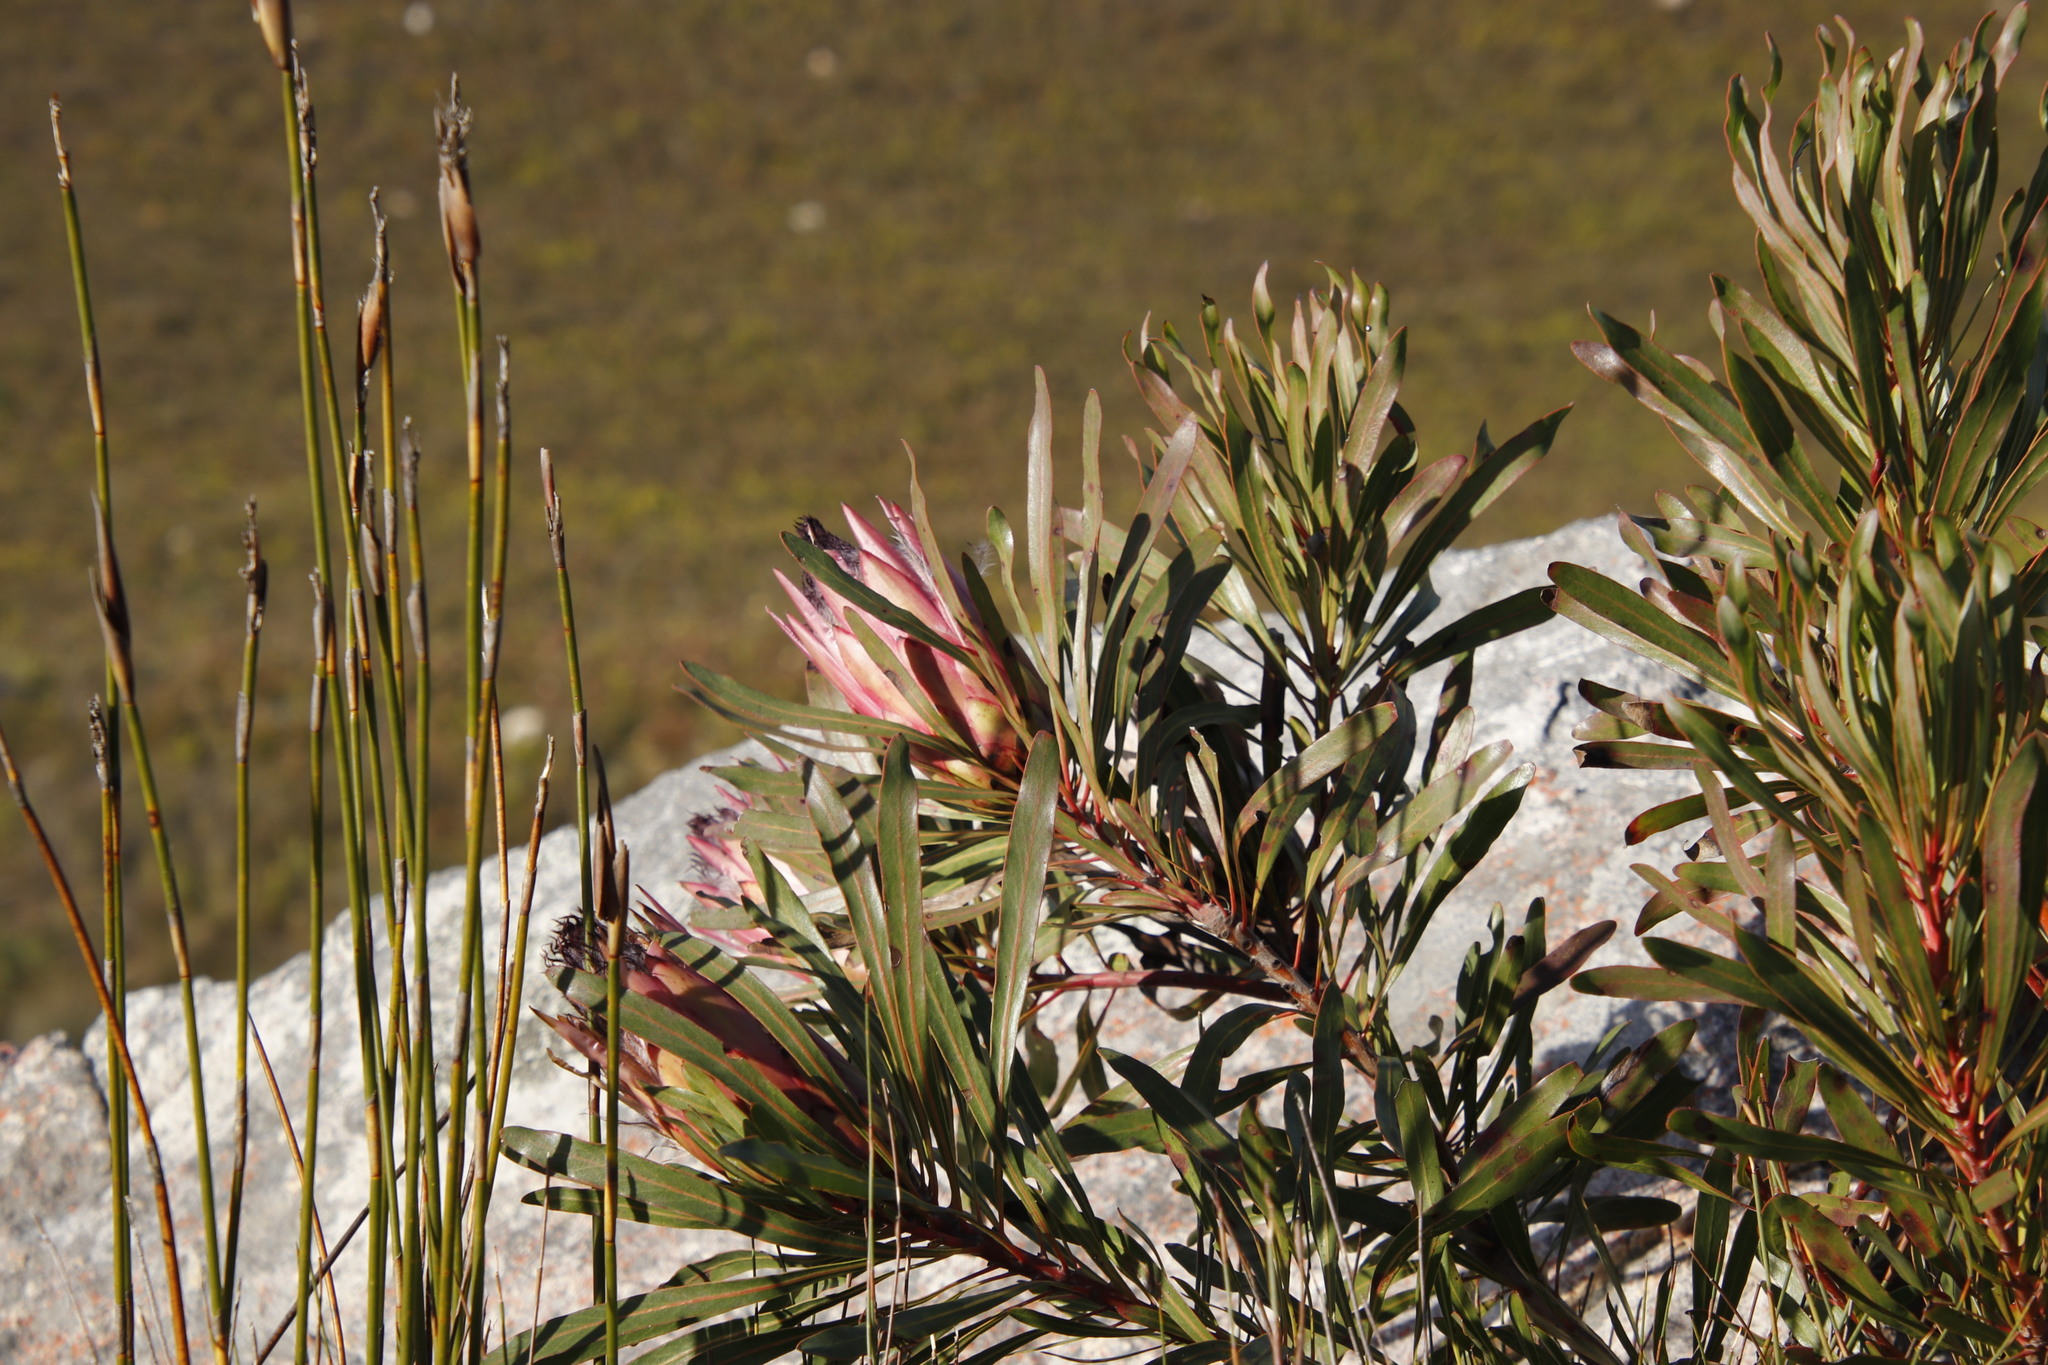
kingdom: Plantae
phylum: Tracheophyta
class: Magnoliopsida
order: Proteales
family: Proteaceae
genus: Protea
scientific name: Protea longifolia
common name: Long-leaf sugarbush
